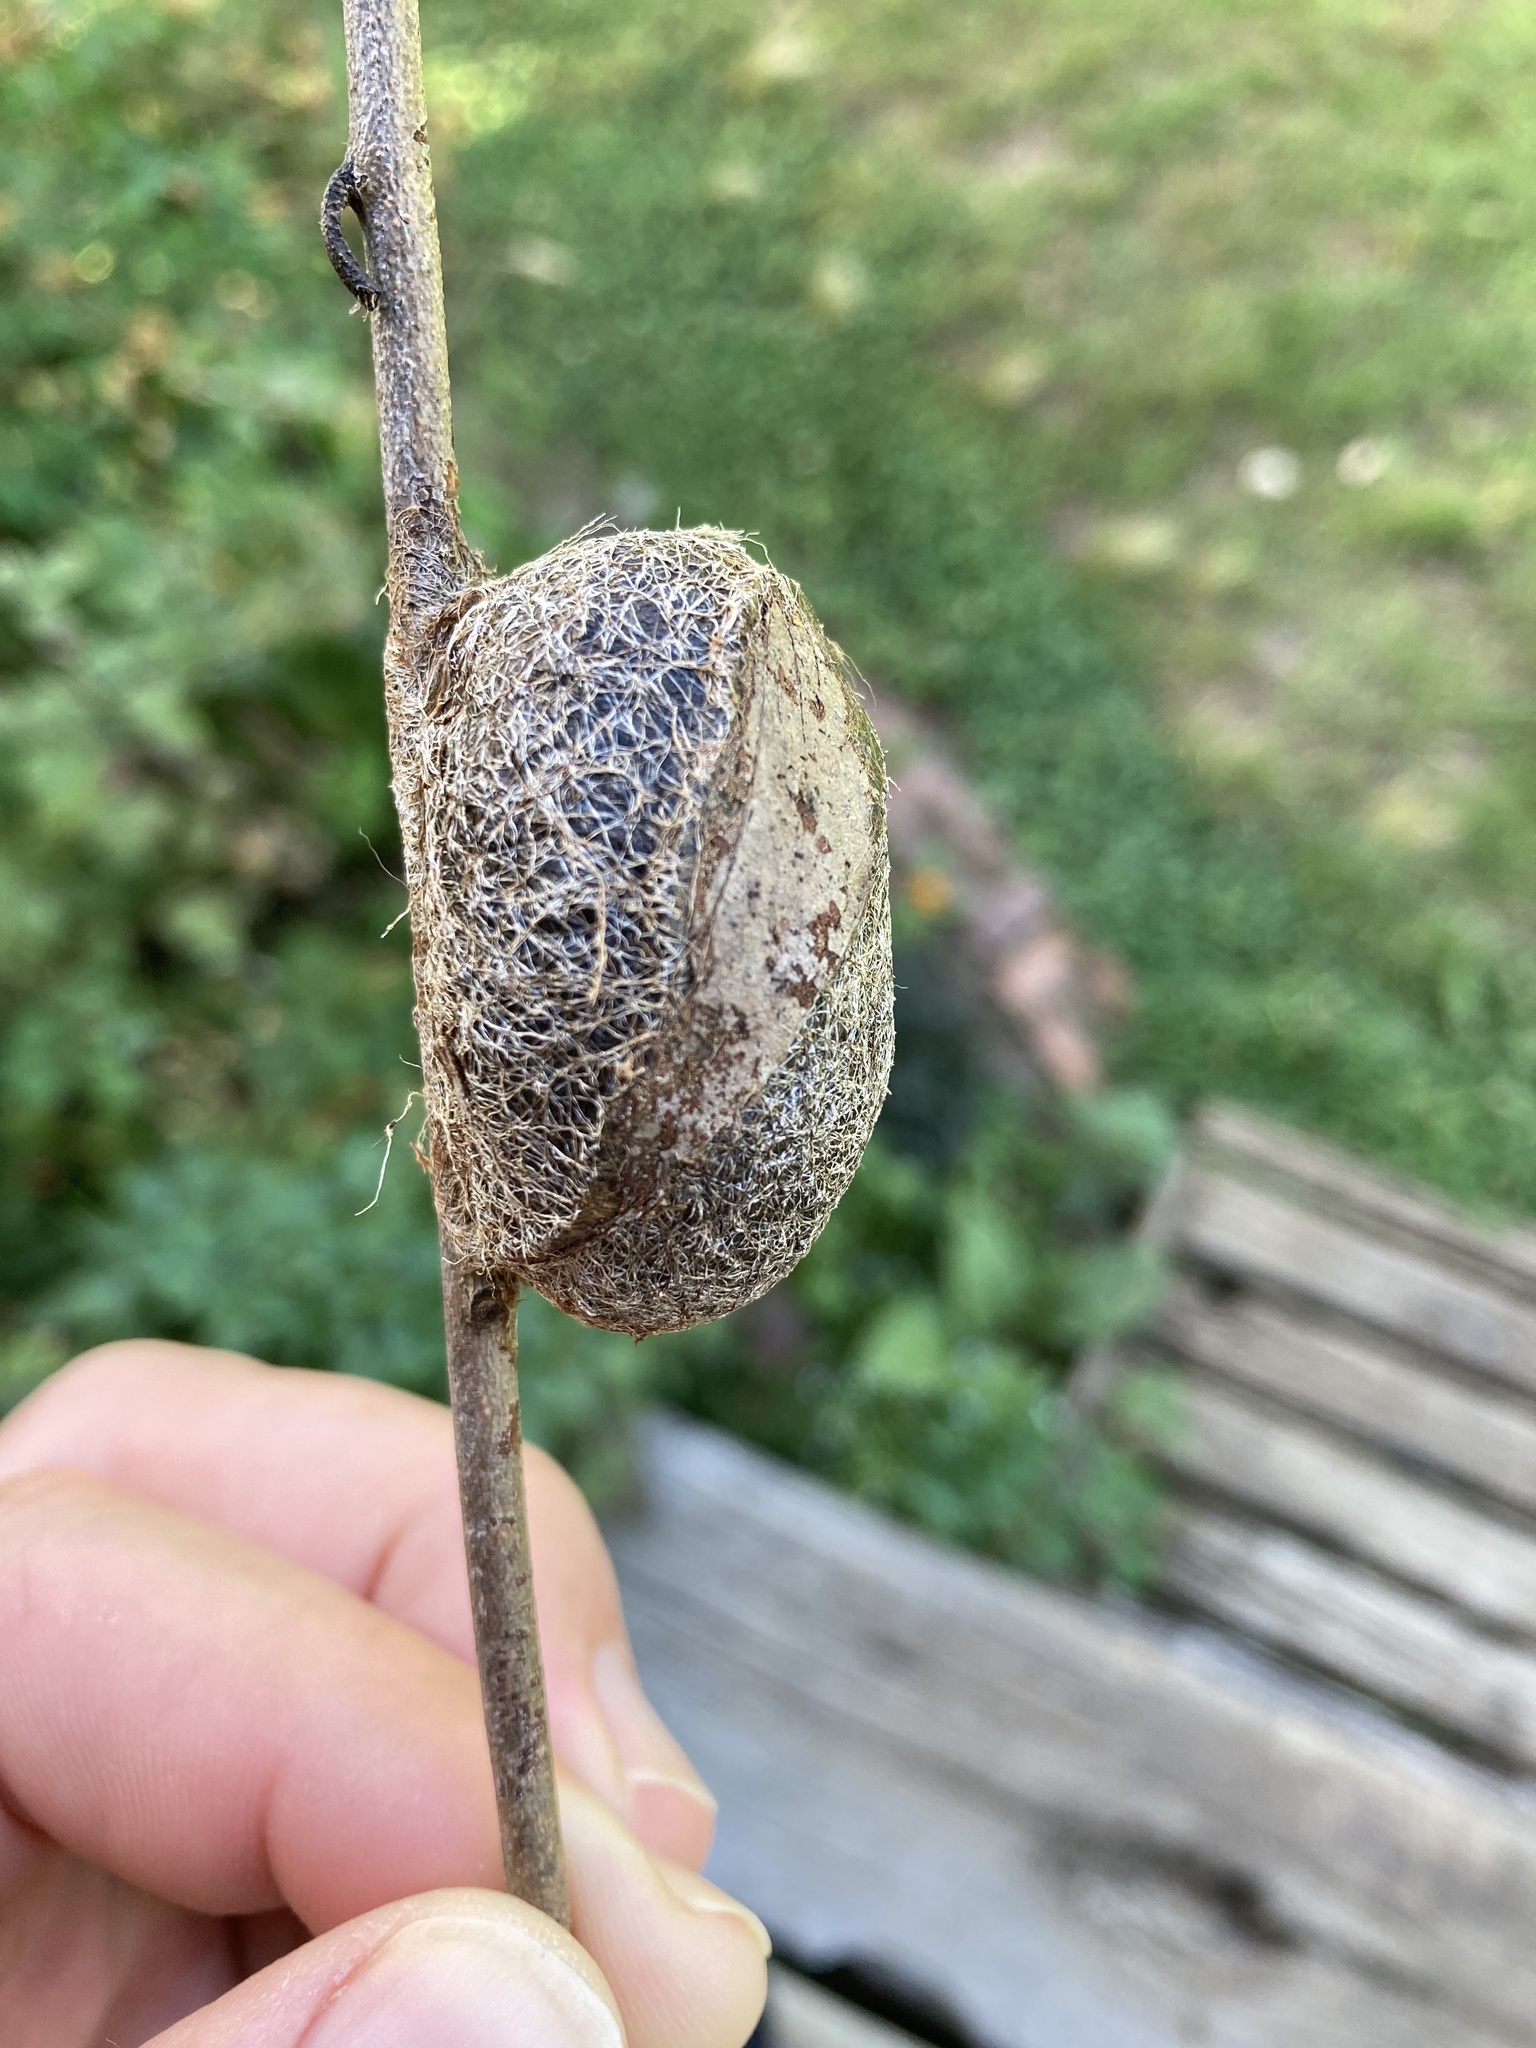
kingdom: Animalia
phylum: Arthropoda
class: Insecta
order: Lepidoptera
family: Saturniidae
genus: Opodiphthera
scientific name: Opodiphthera
